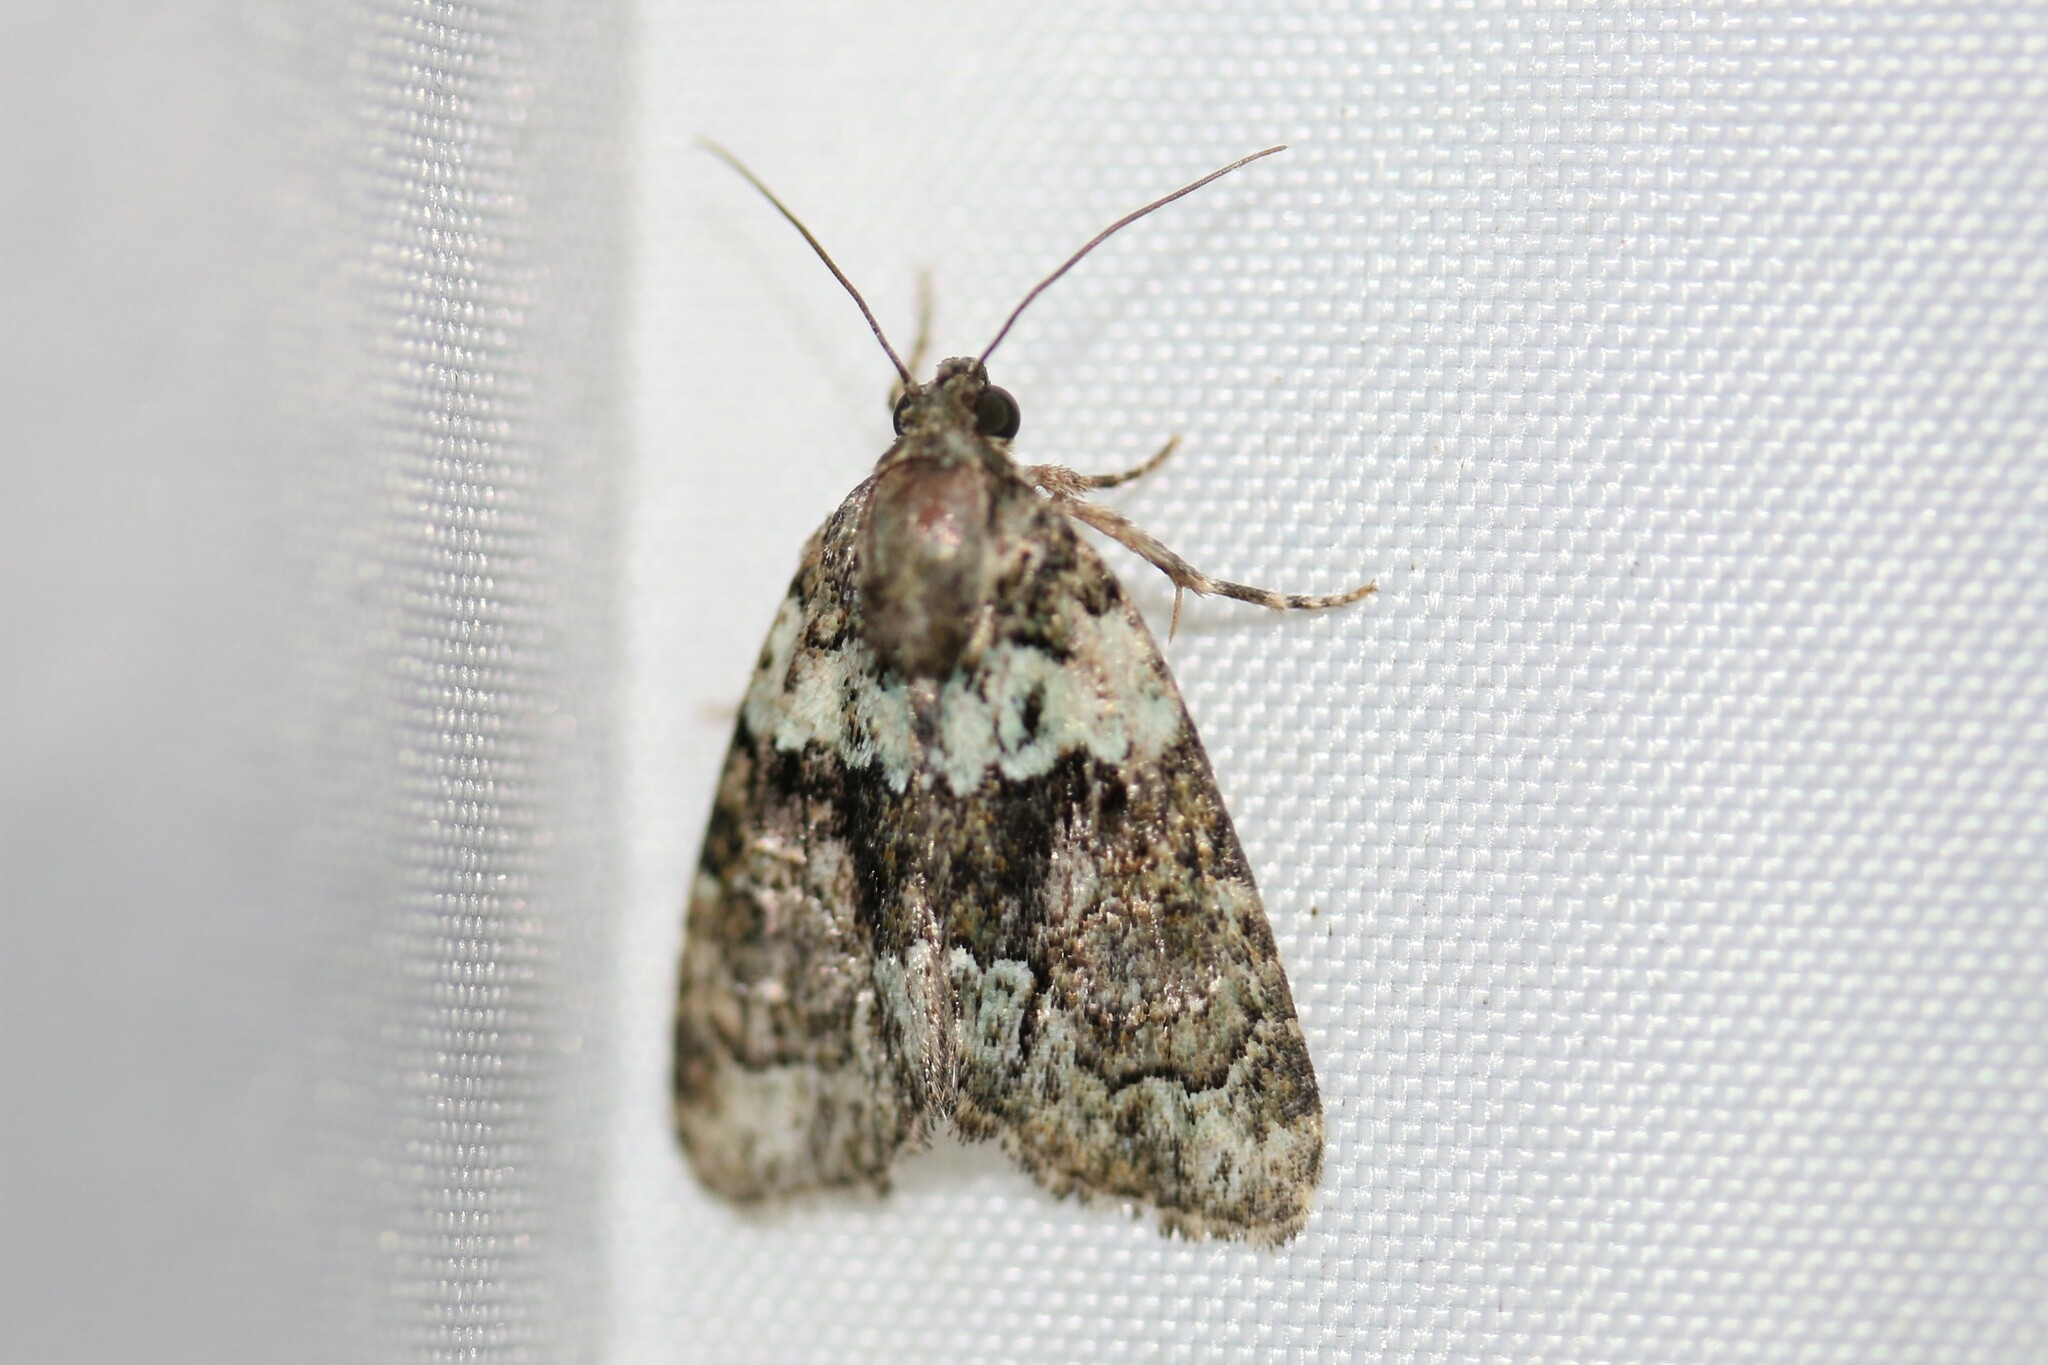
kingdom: Animalia
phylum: Arthropoda
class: Insecta
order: Lepidoptera
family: Noctuidae
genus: Cryphia
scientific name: Cryphia algae
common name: Tree-lichen beauty
